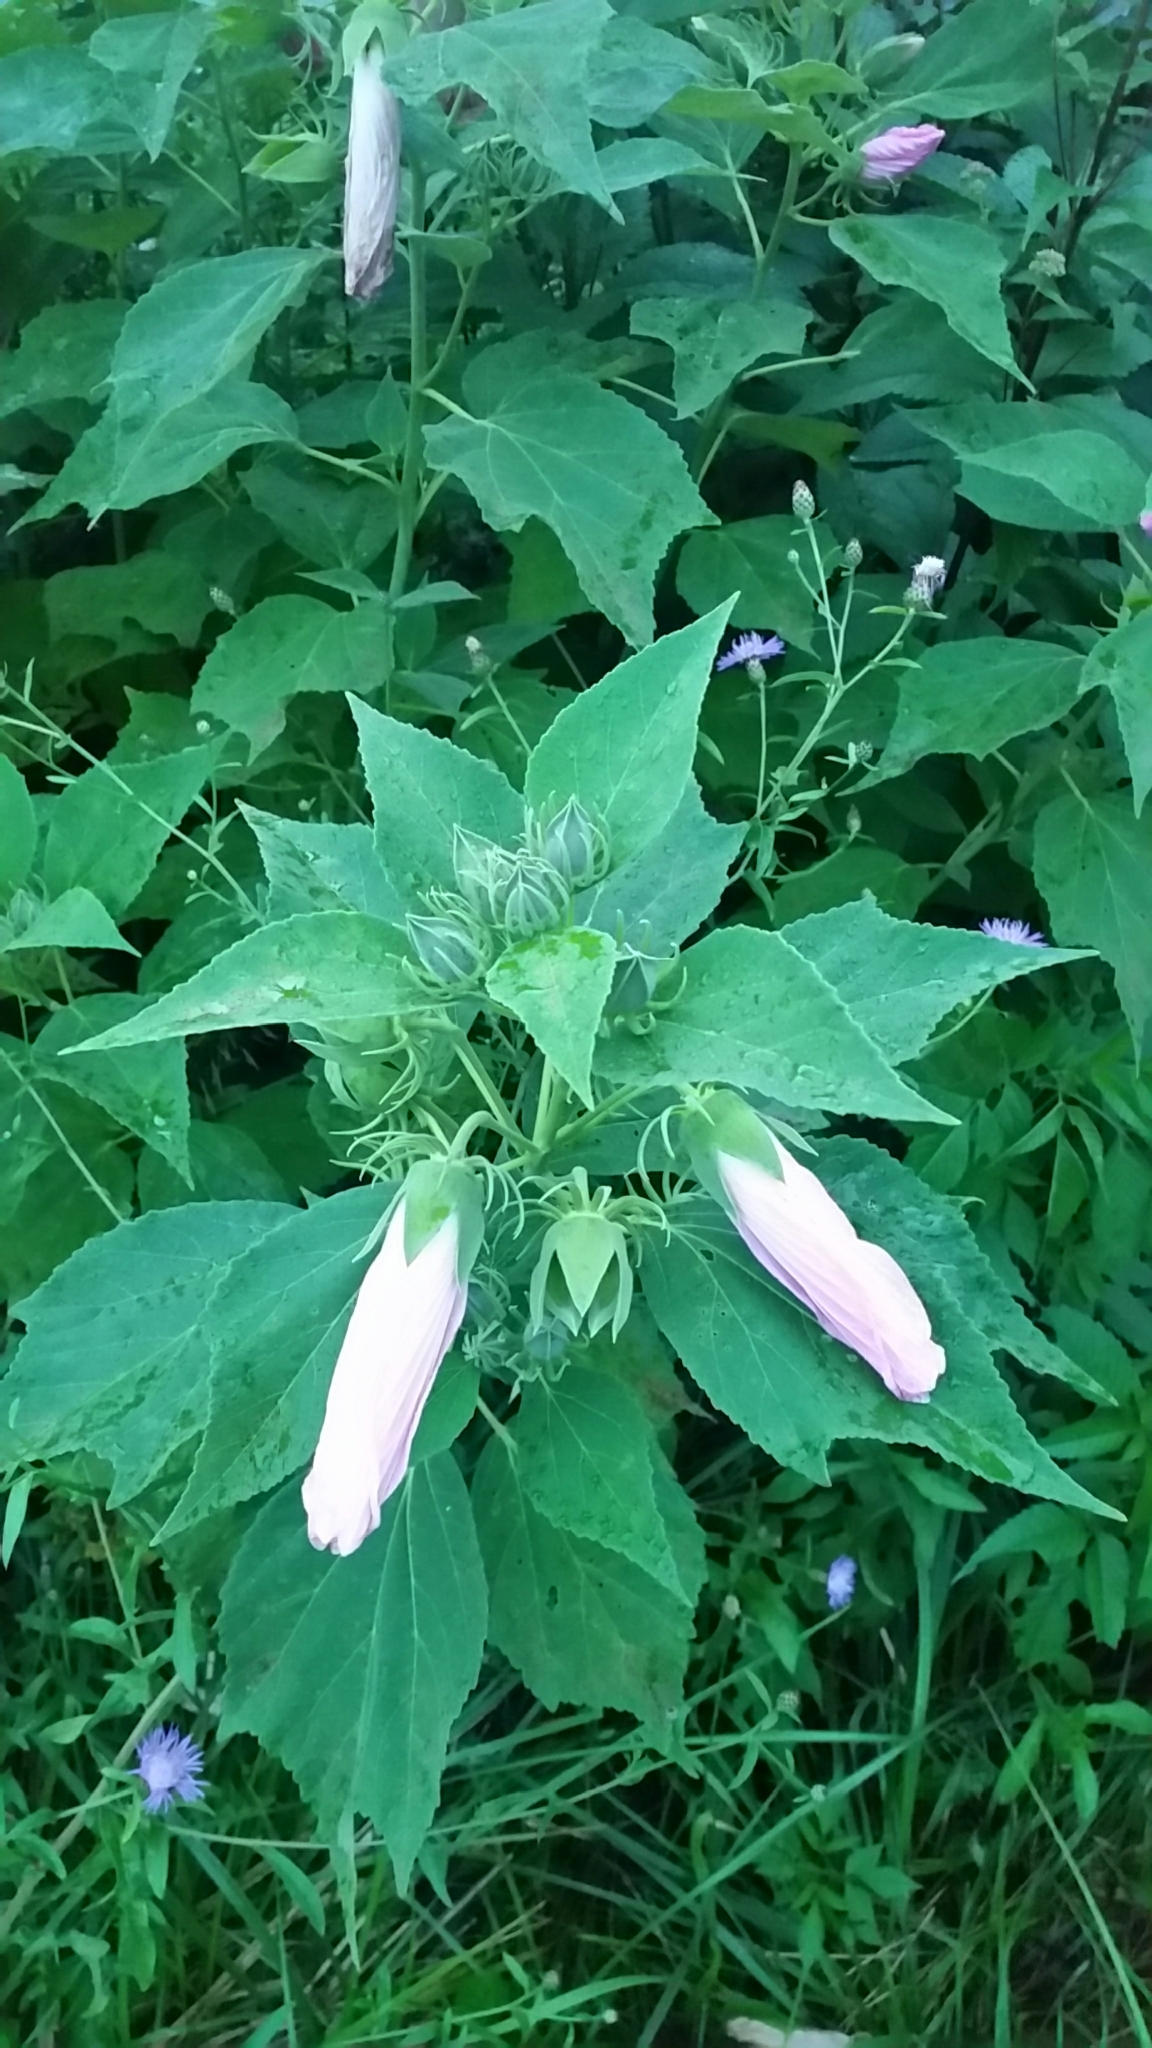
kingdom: Plantae
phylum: Tracheophyta
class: Magnoliopsida
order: Malvales
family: Malvaceae
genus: Hibiscus
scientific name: Hibiscus moscheutos
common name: Common rose-mallow
